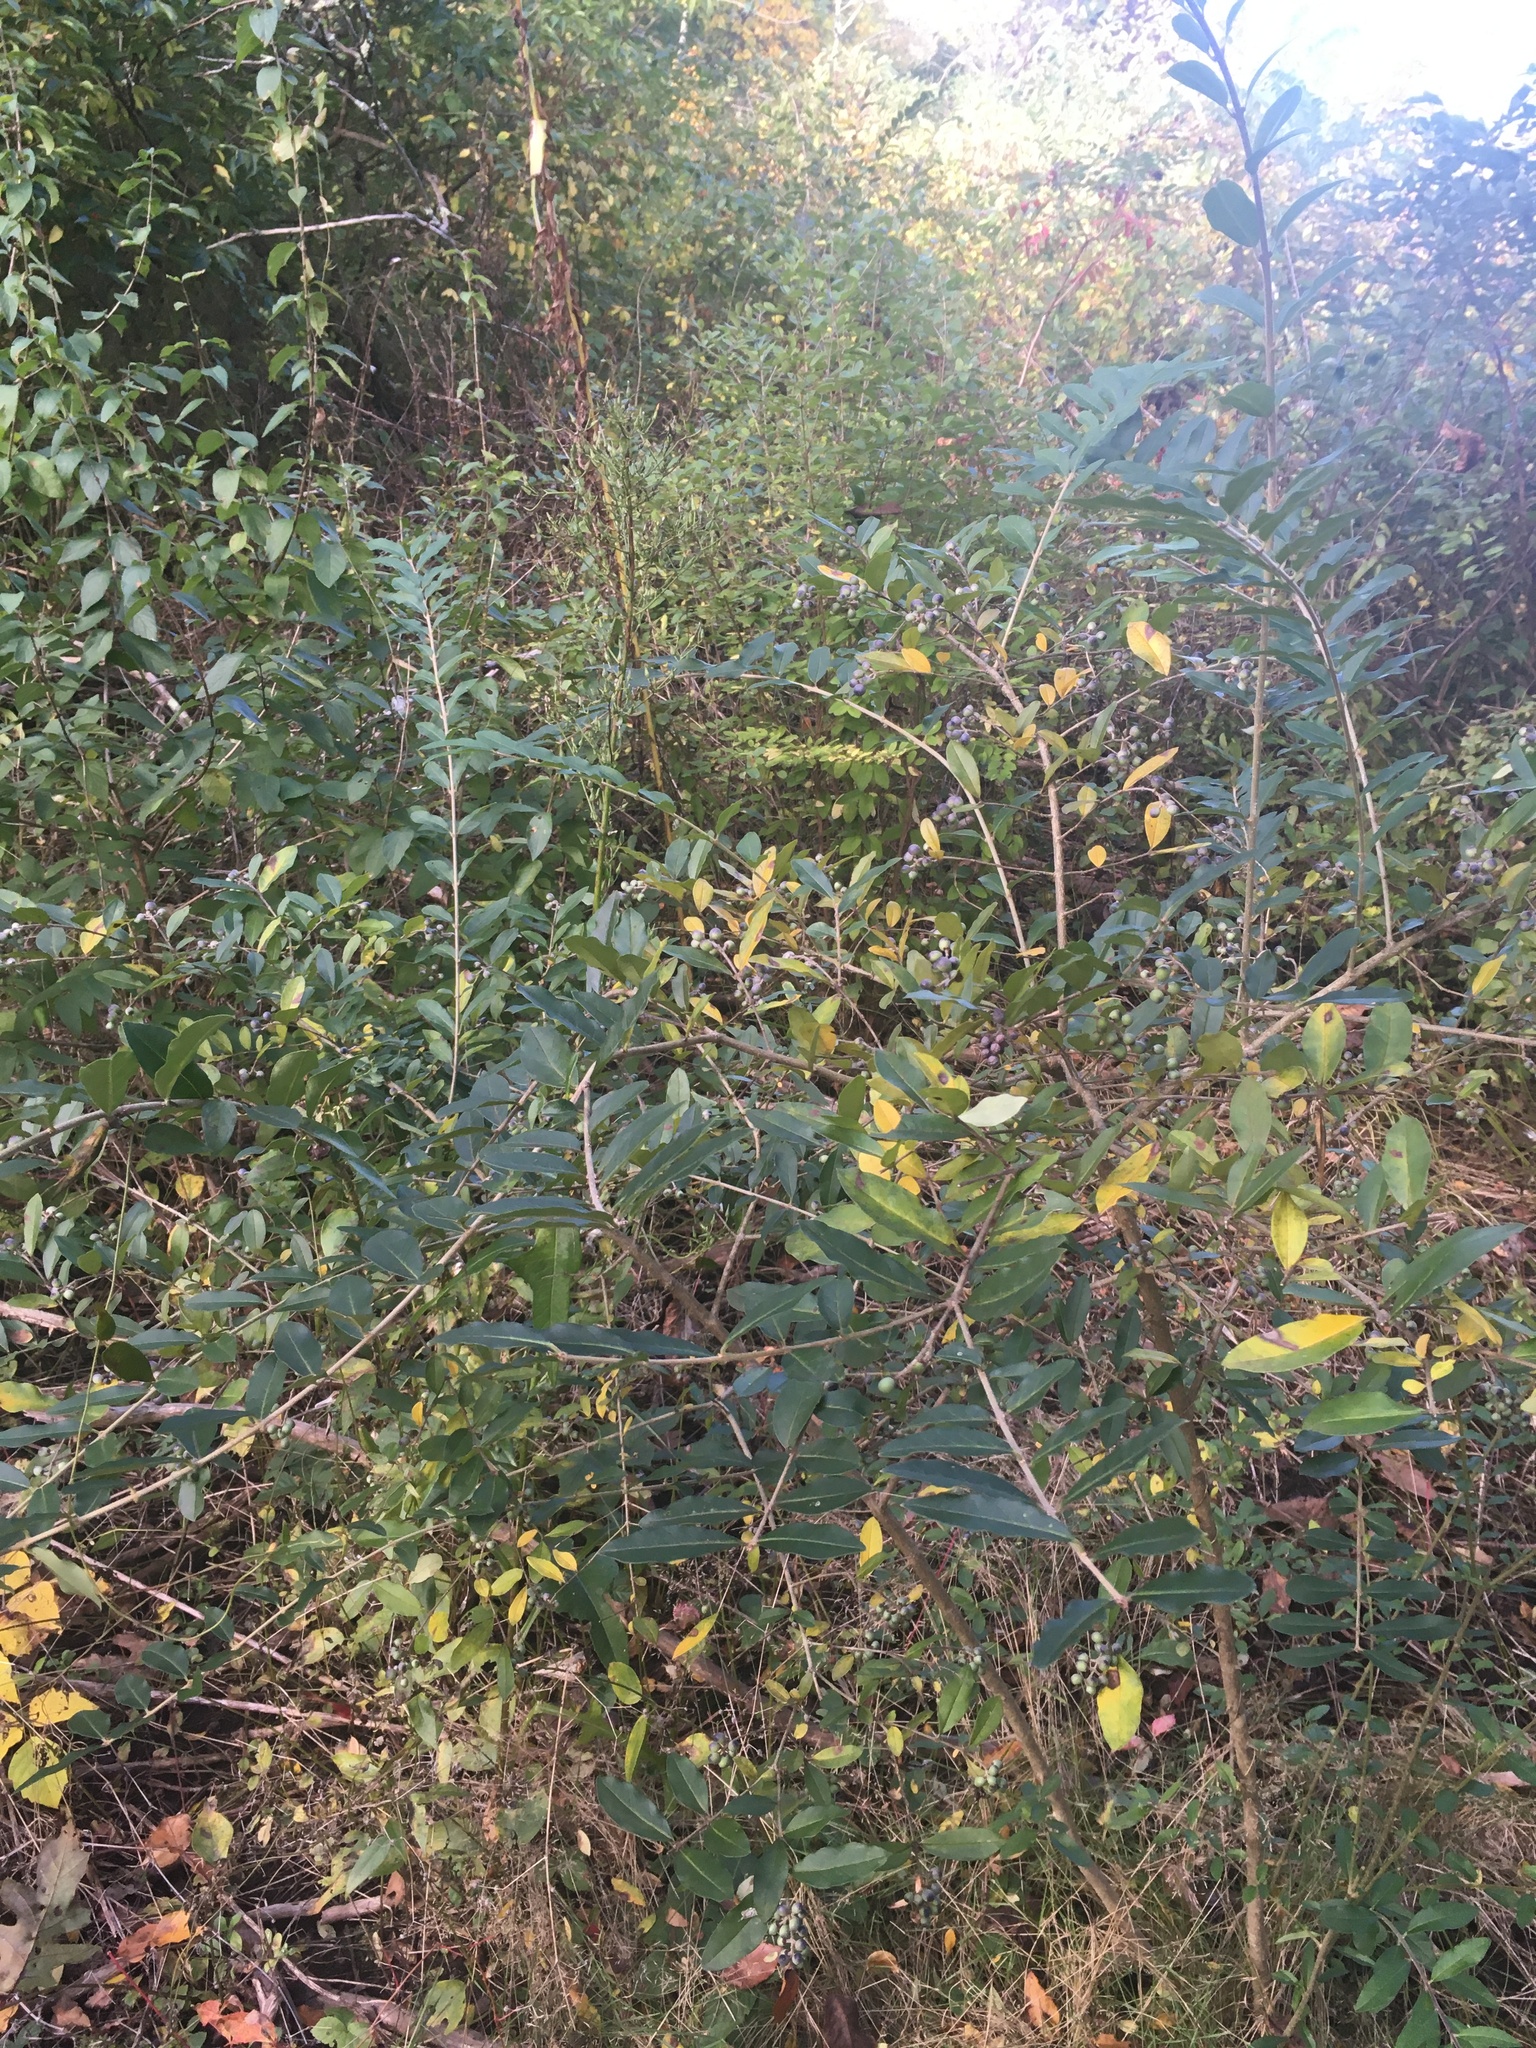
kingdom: Plantae
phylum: Tracheophyta
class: Magnoliopsida
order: Lamiales
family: Oleaceae
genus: Ligustrum
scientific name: Ligustrum obtusifolium
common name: Border privet
